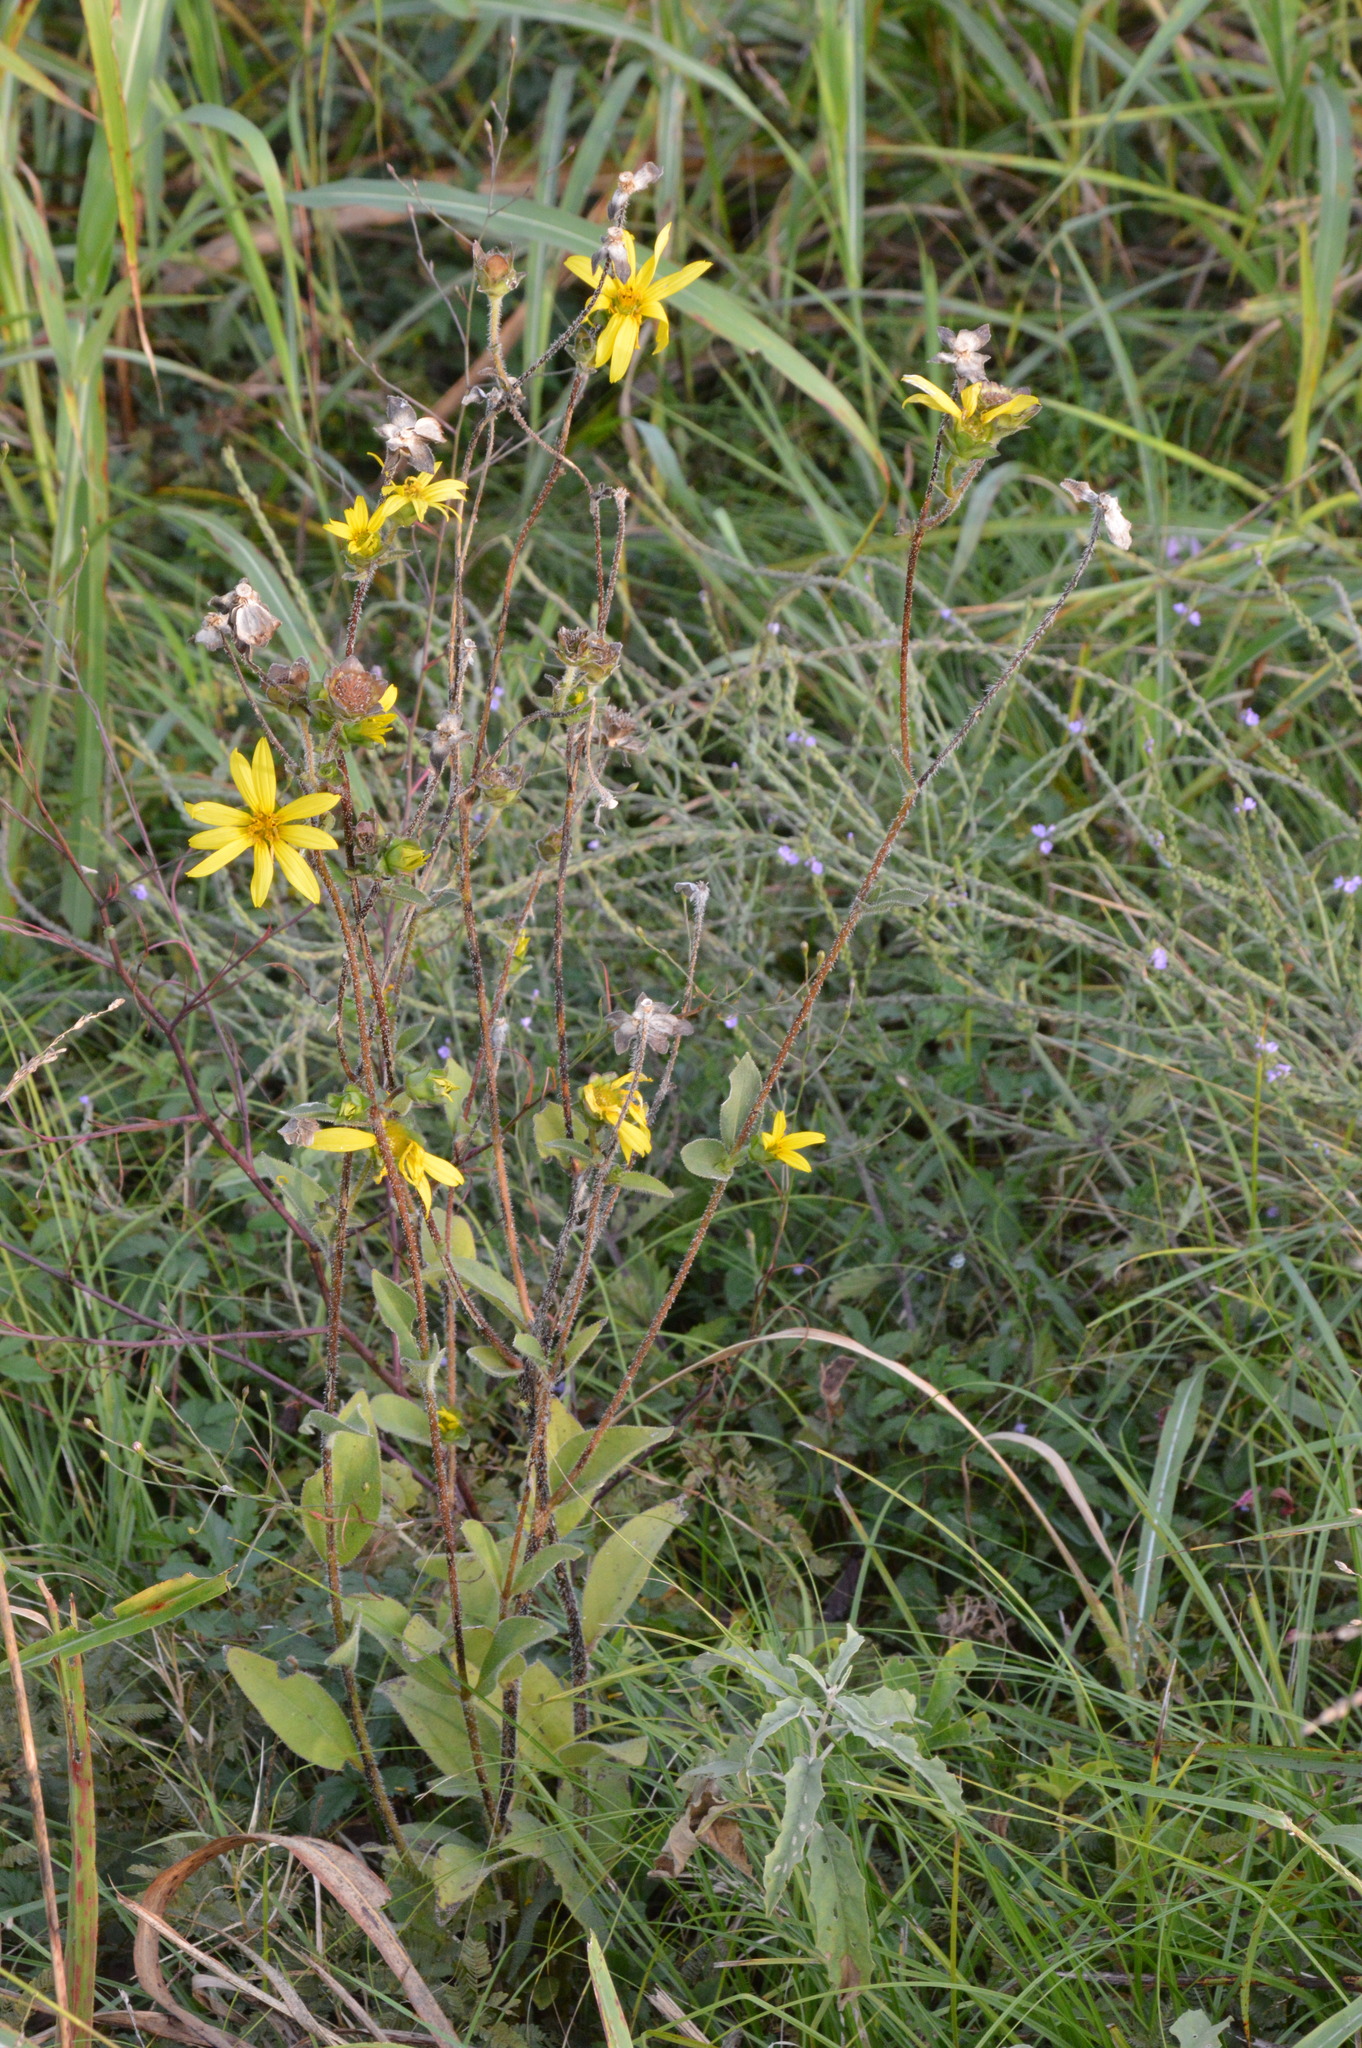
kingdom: Plantae
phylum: Tracheophyta
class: Magnoliopsida
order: Asterales
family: Asteraceae
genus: Silphium
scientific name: Silphium radula
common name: Roughleaf rosinweed
